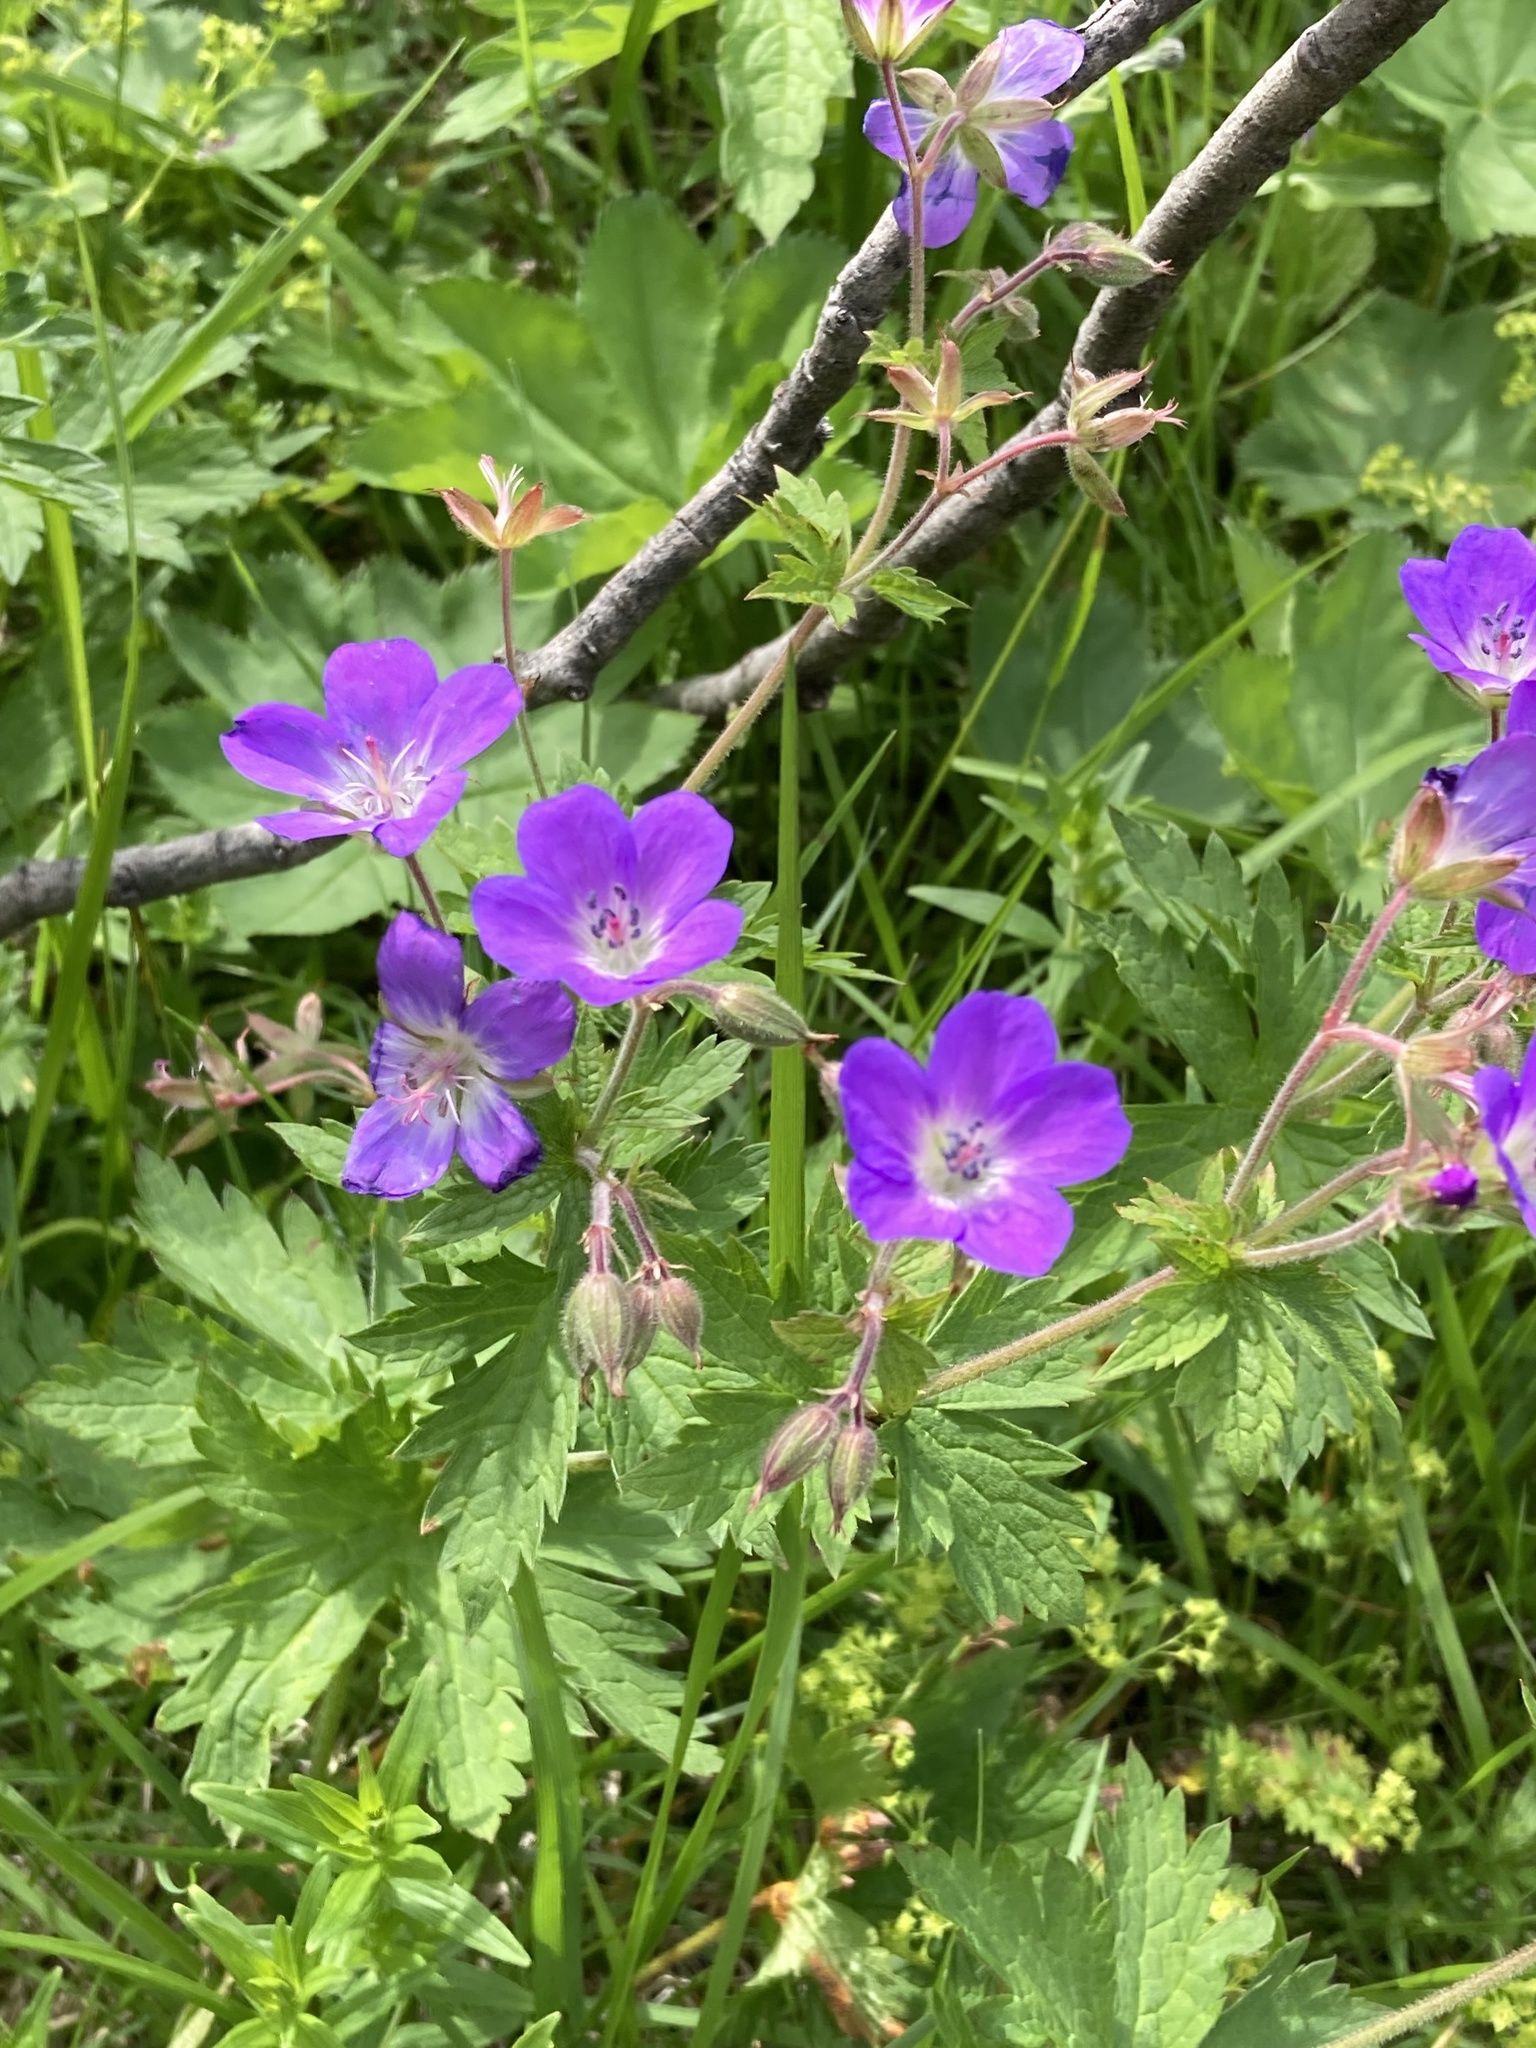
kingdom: Plantae
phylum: Tracheophyta
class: Magnoliopsida
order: Geraniales
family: Geraniaceae
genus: Geranium
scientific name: Geranium sylvaticum
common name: Wood crane's-bill
